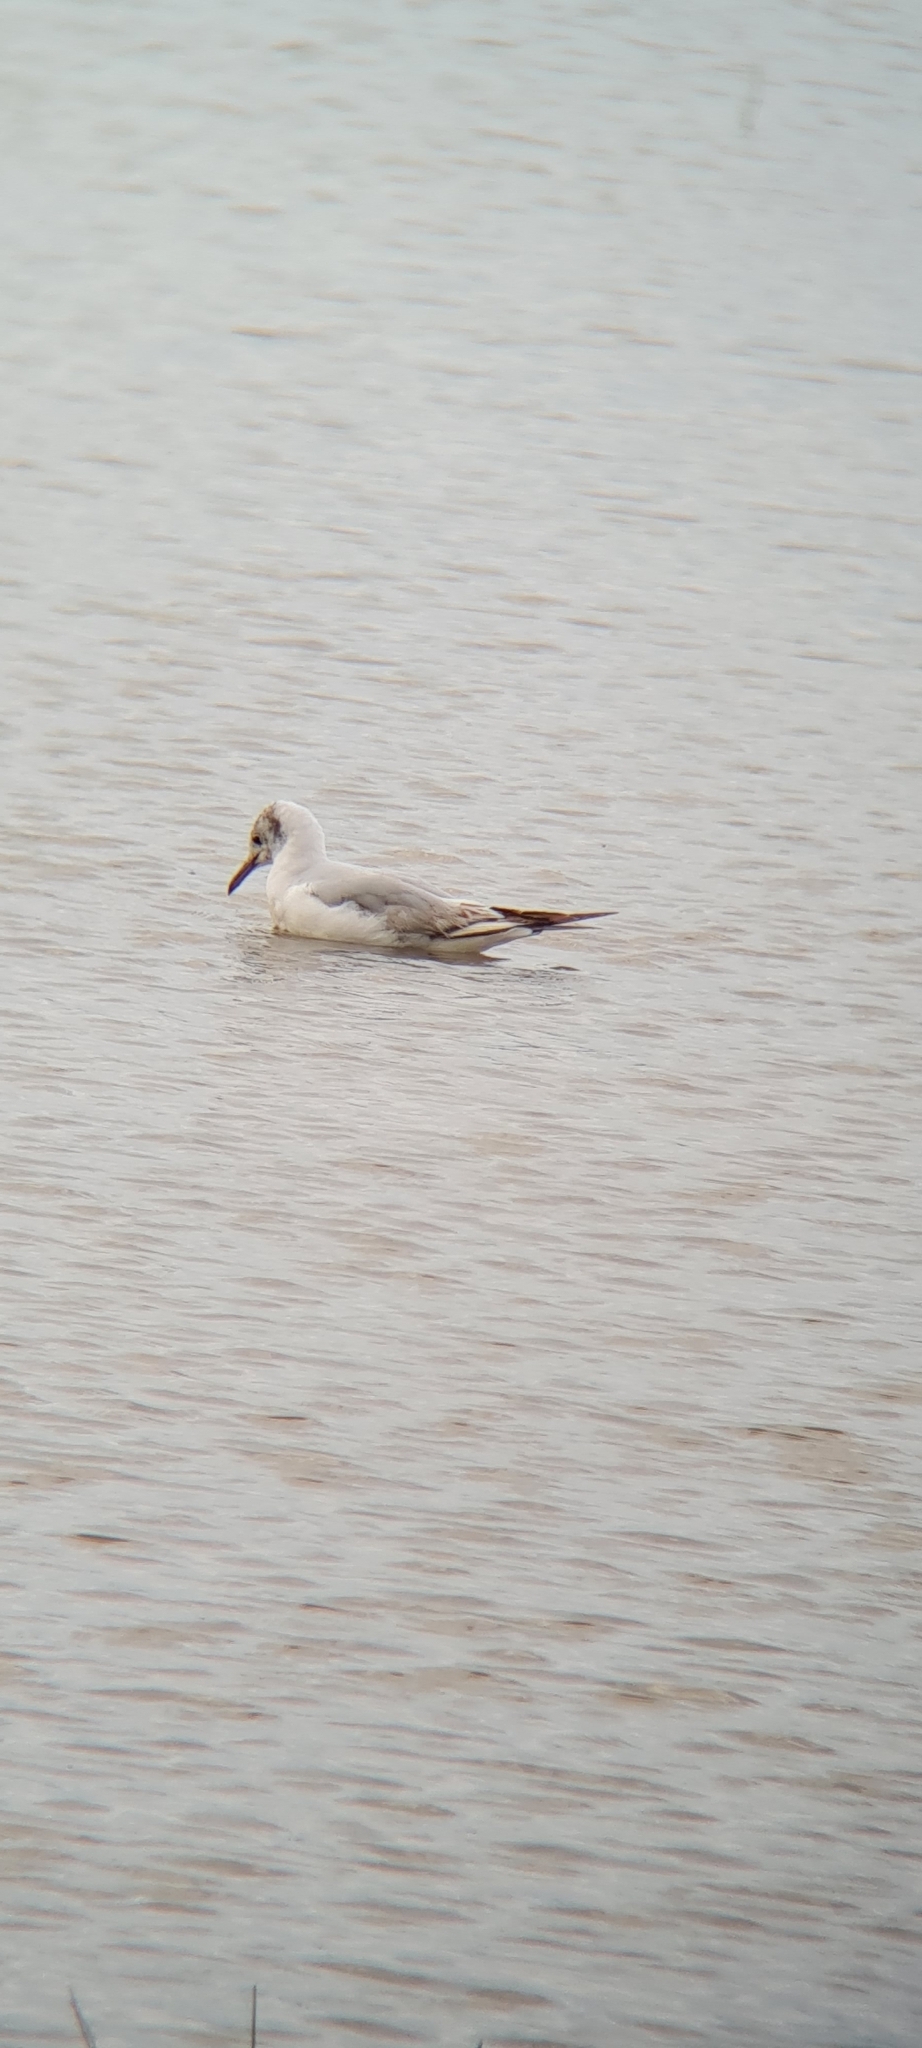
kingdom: Animalia
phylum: Chordata
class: Aves
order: Charadriiformes
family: Laridae
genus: Chroicocephalus
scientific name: Chroicocephalus ridibundus
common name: Black-headed gull
